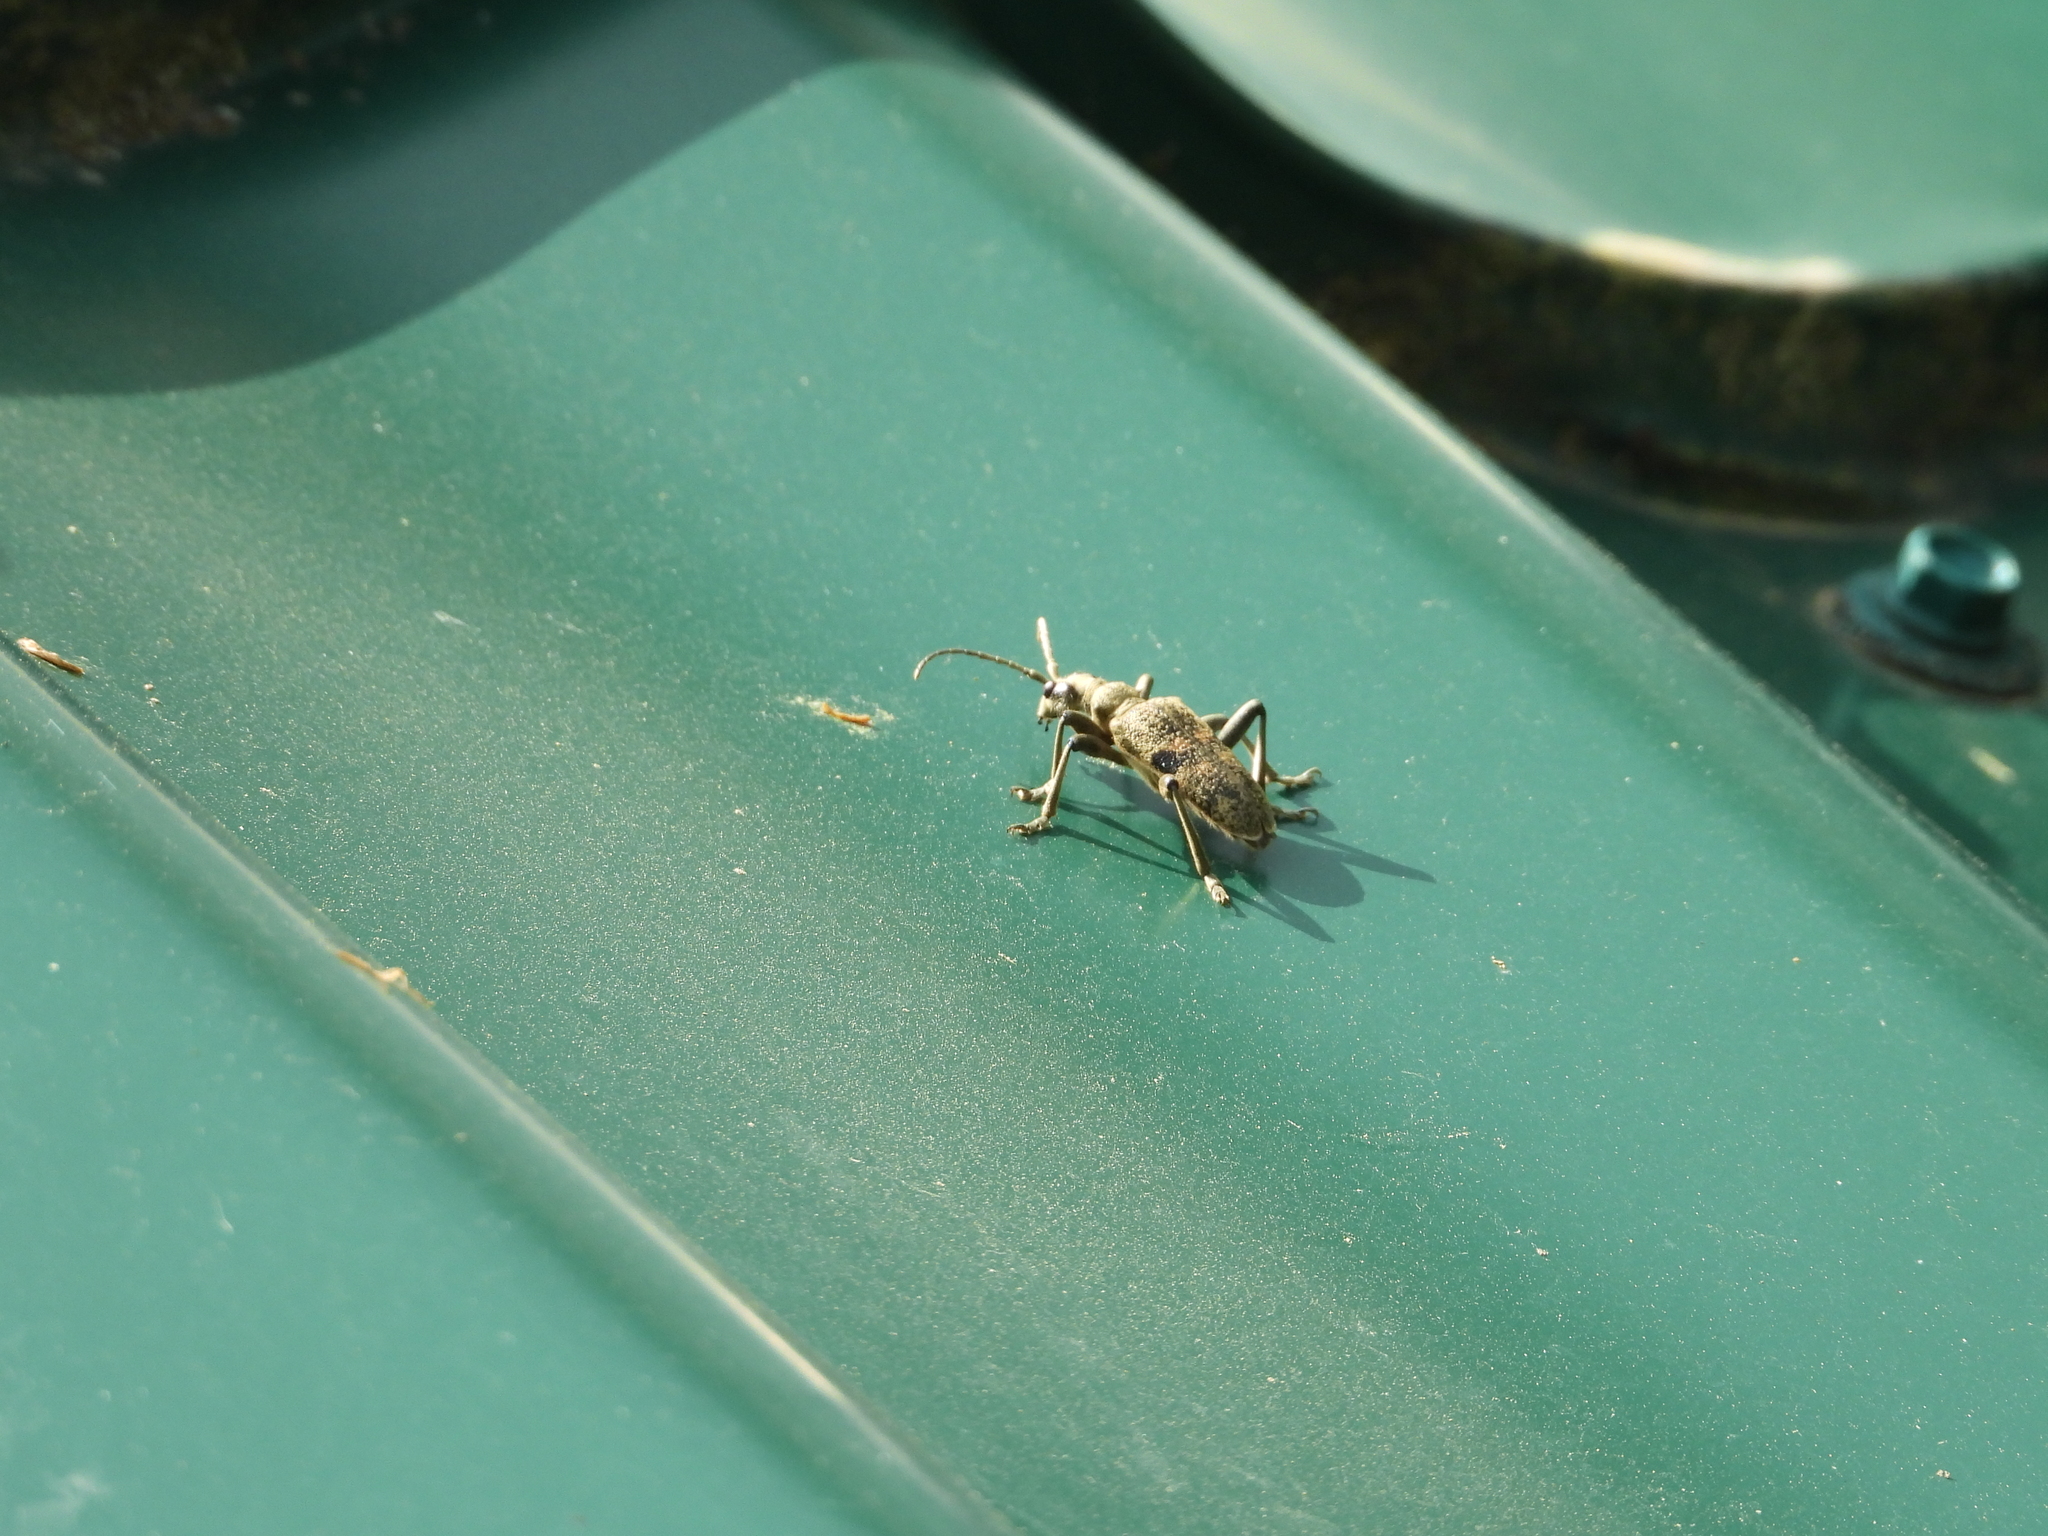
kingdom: Animalia
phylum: Arthropoda
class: Insecta
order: Coleoptera
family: Cerambycidae
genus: Rhagium
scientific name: Rhagium mordax
